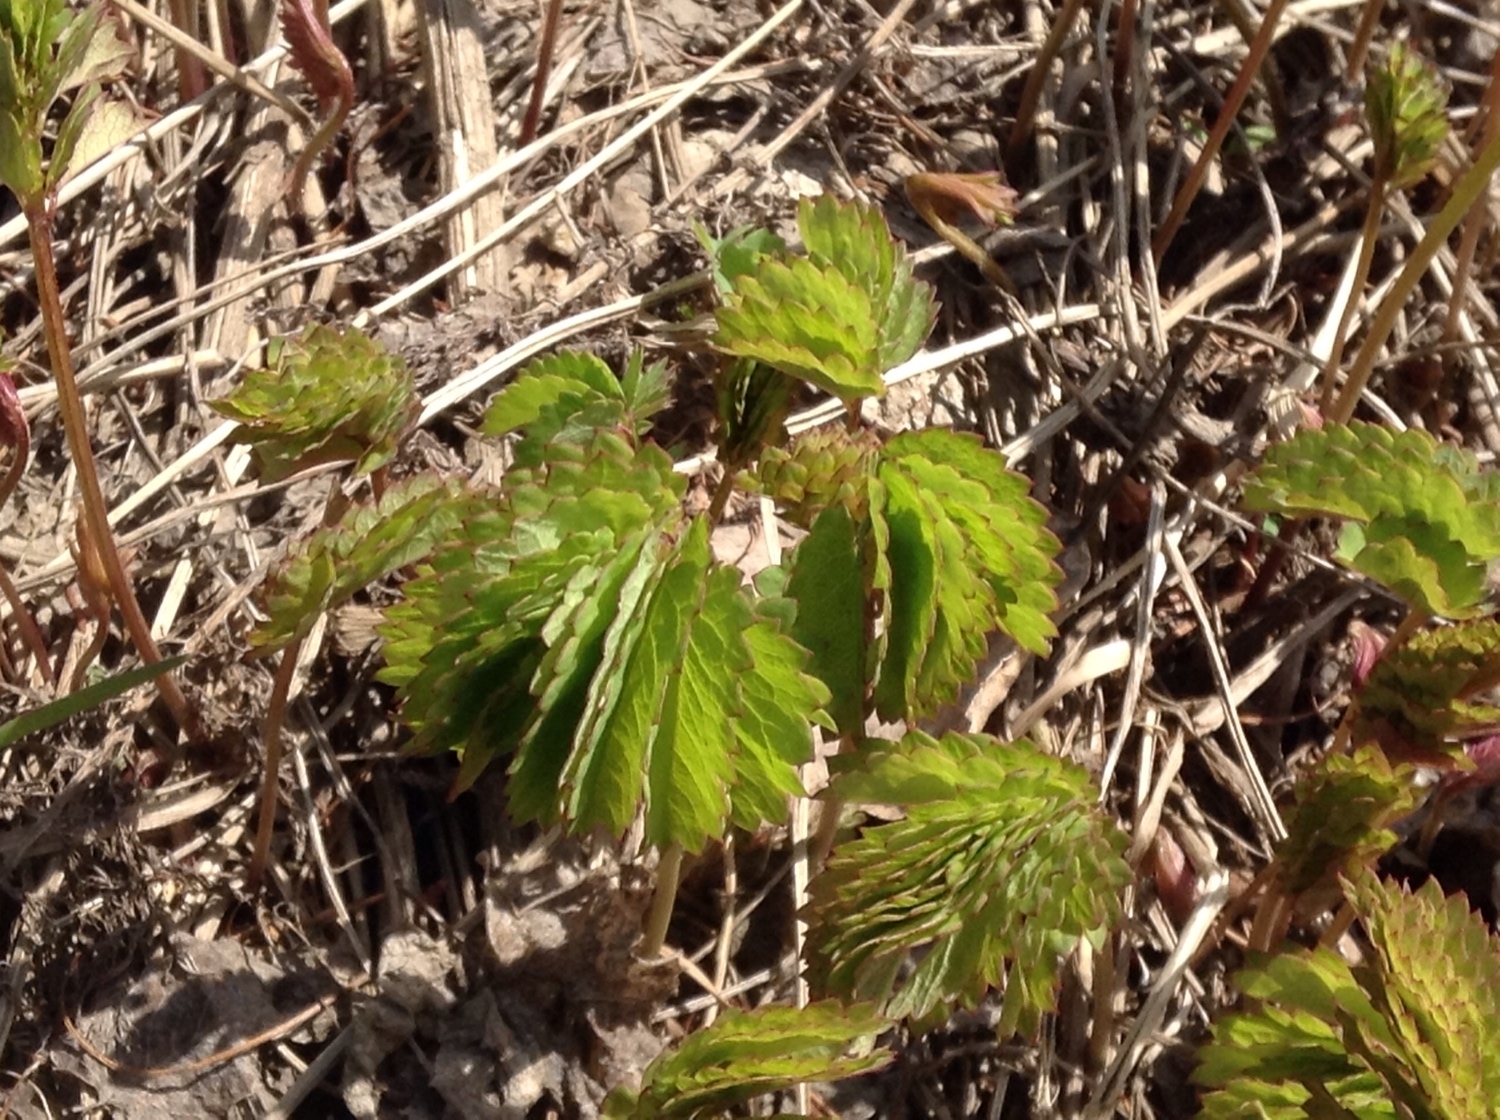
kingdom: Plantae
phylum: Tracheophyta
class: Magnoliopsida
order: Rosales
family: Rosaceae
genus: Sanguisorba
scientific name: Sanguisorba officinalis
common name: Great burnet
